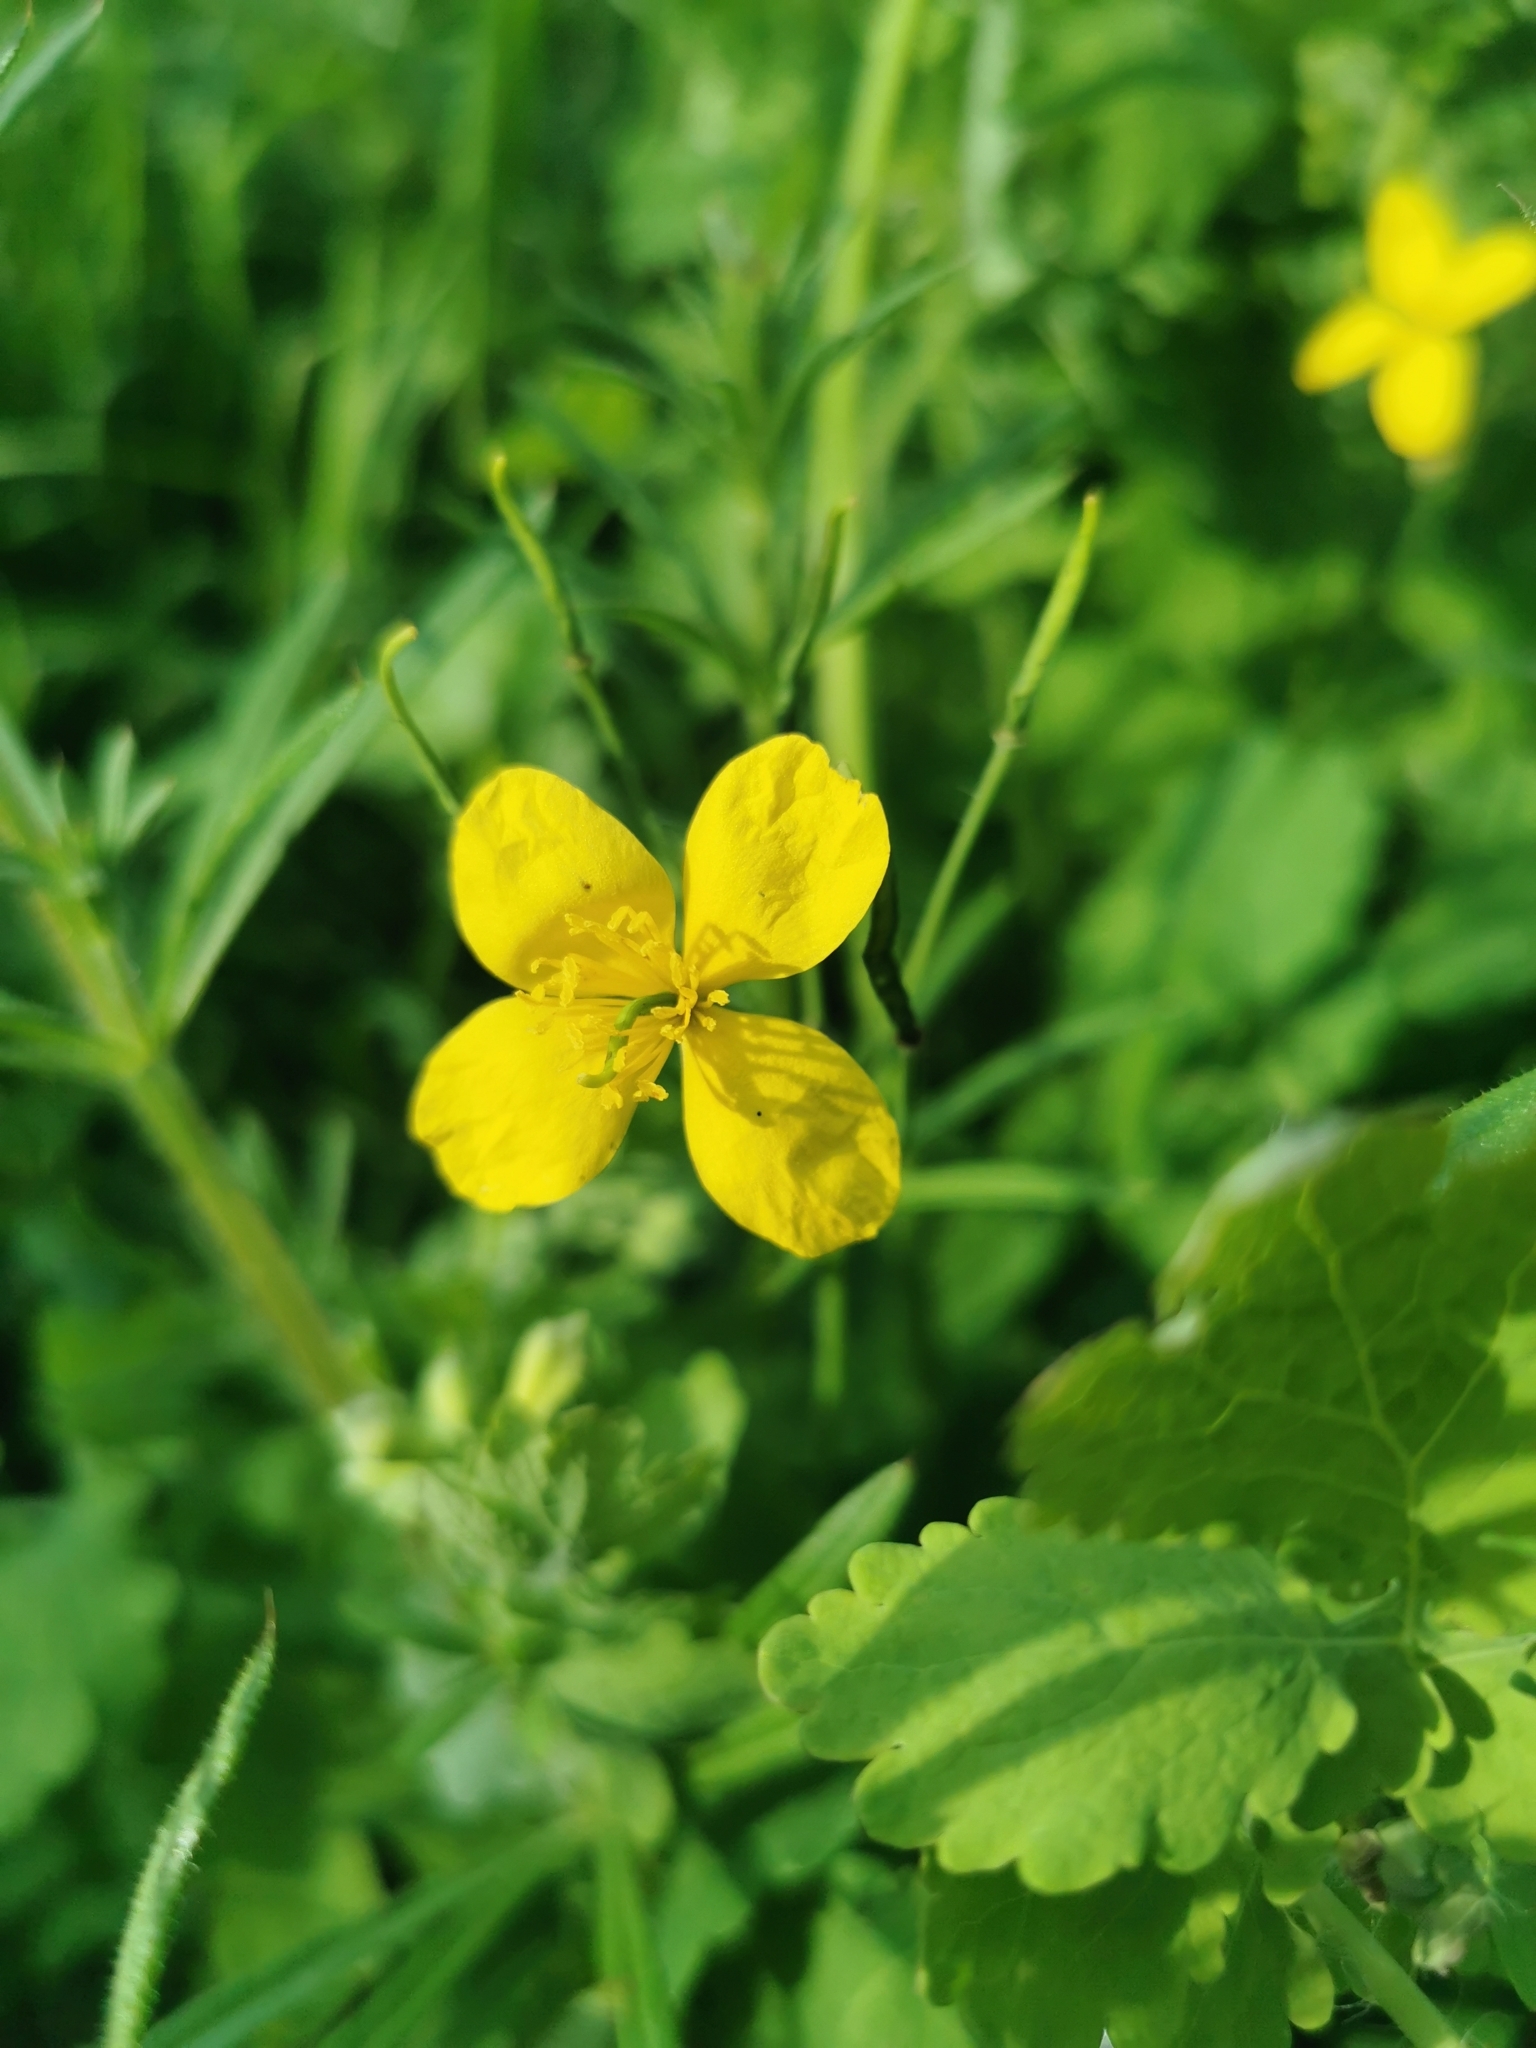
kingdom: Plantae
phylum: Tracheophyta
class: Magnoliopsida
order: Ranunculales
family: Papaveraceae
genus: Chelidonium
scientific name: Chelidonium majus
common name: Greater celandine
